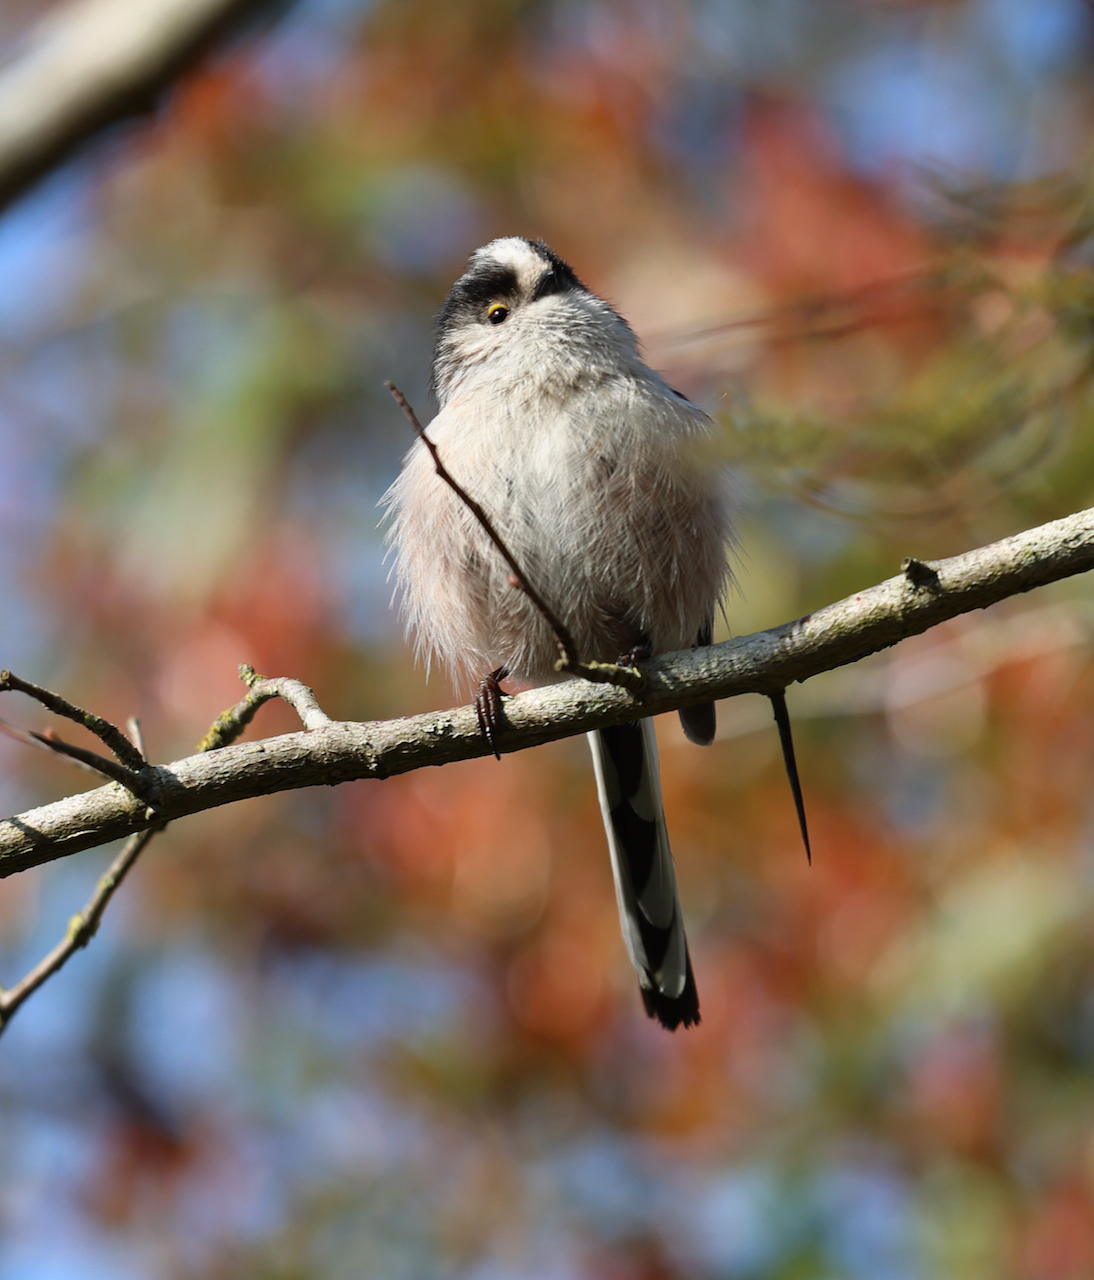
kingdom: Animalia
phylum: Chordata
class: Aves
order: Passeriformes
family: Aegithalidae
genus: Aegithalos
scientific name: Aegithalos caudatus
